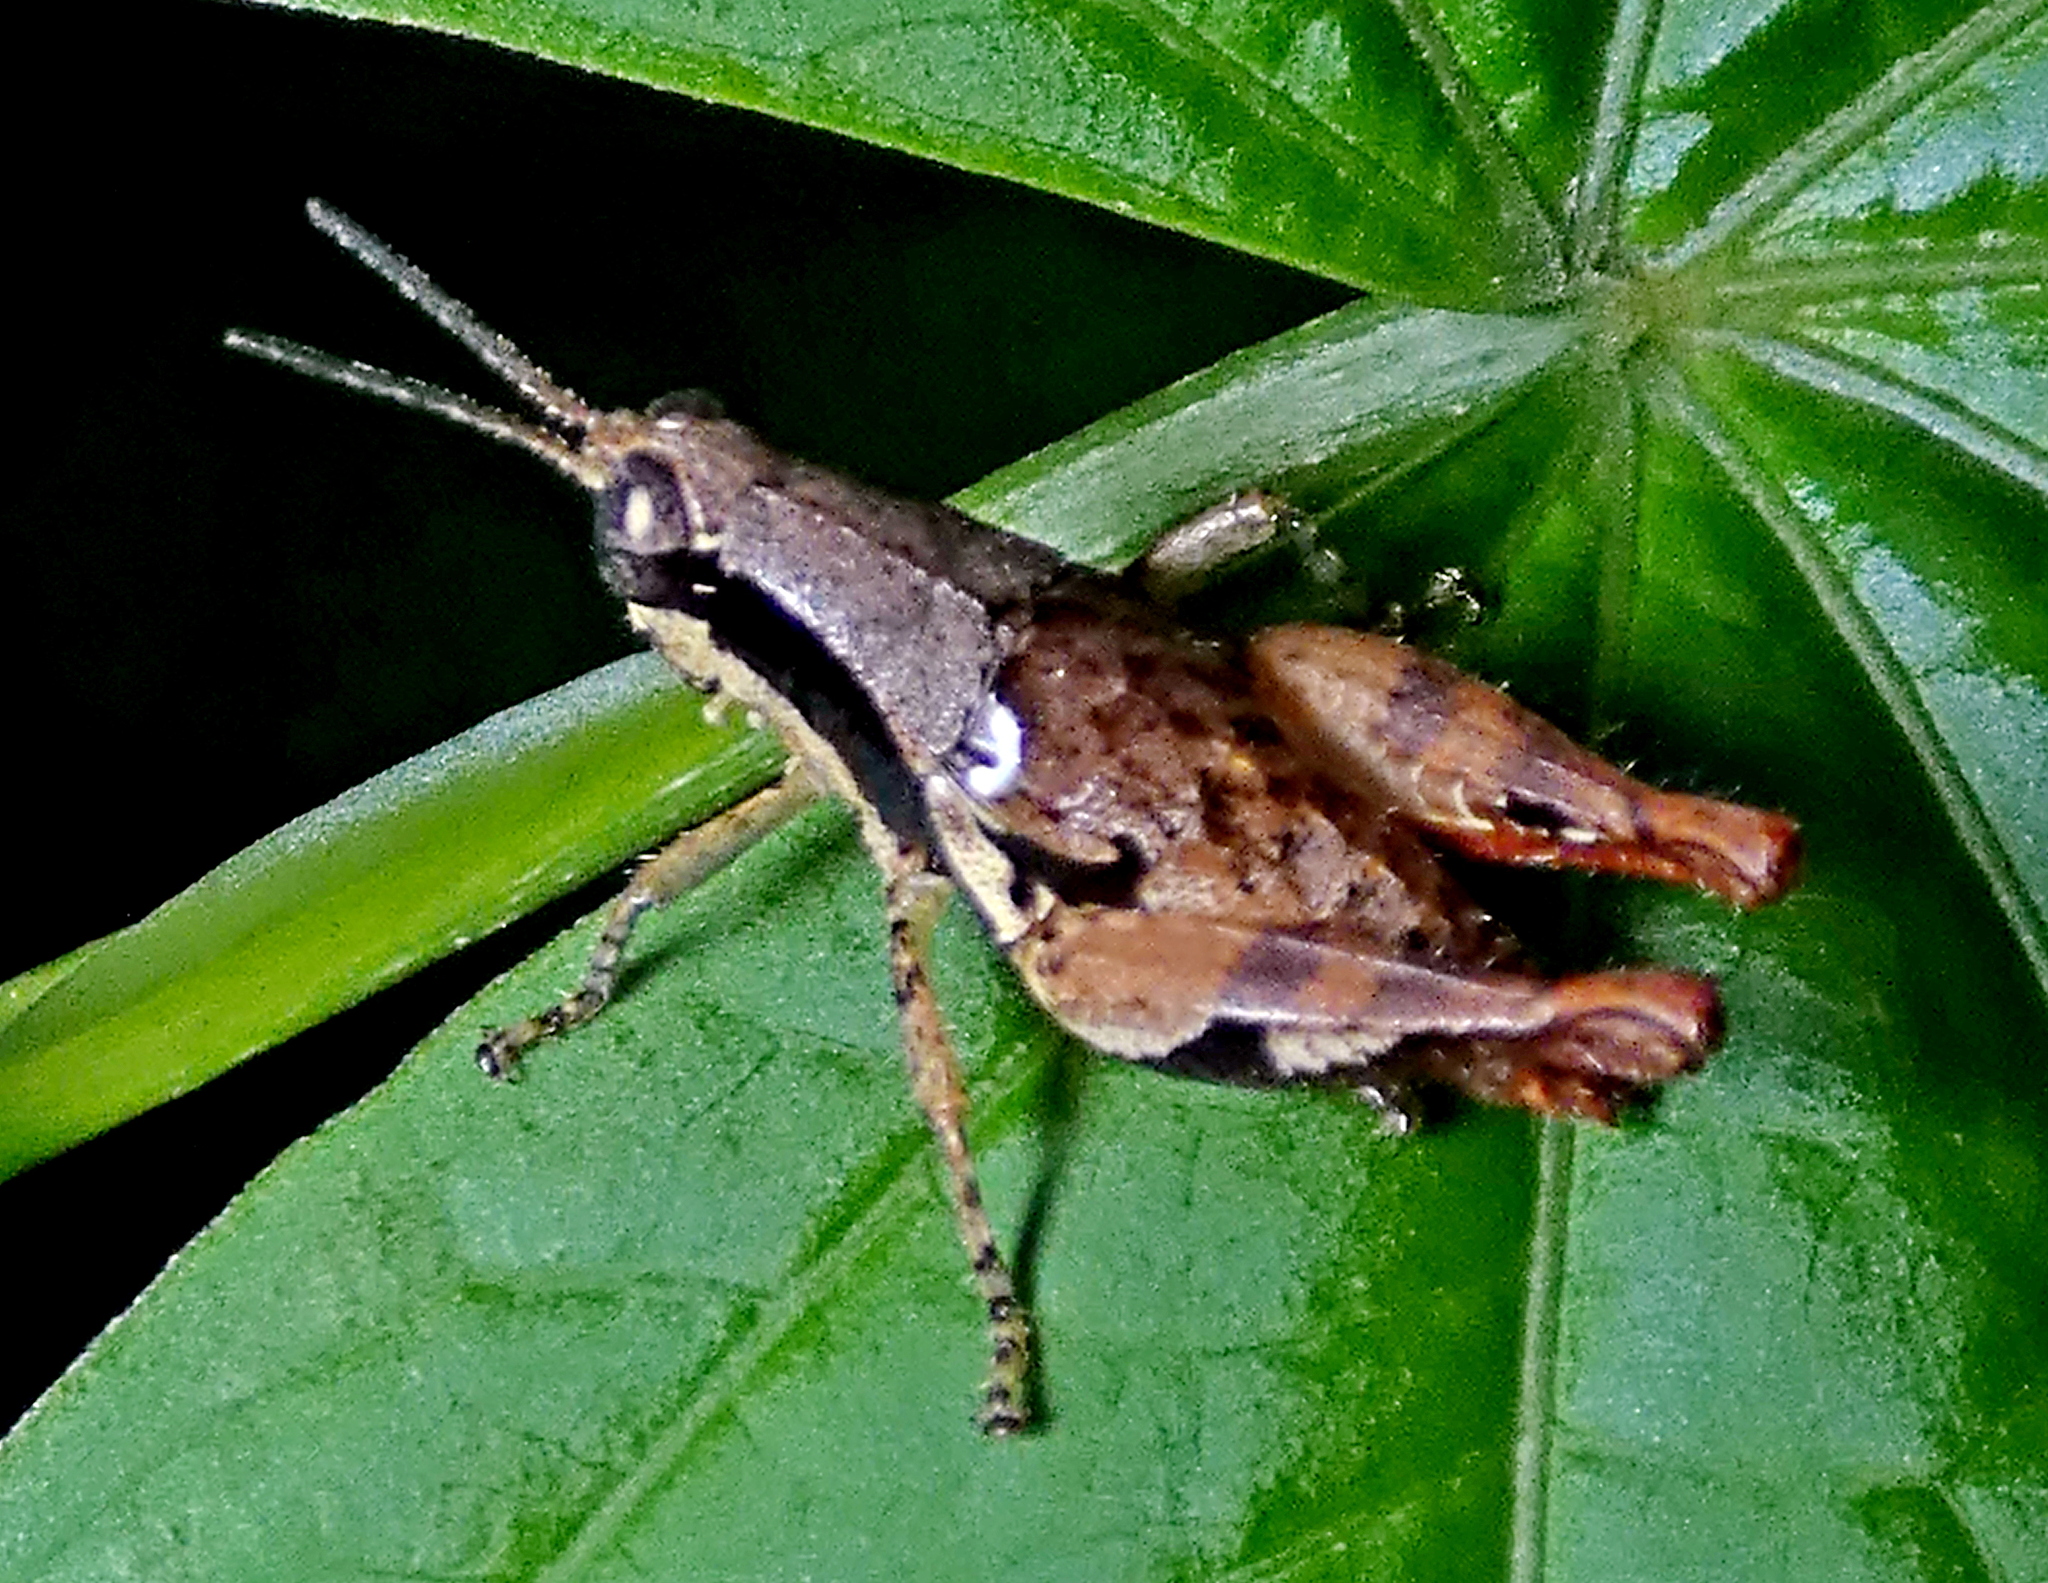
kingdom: Animalia
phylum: Arthropoda
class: Insecta
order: Orthoptera
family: Acrididae
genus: Eujivarus
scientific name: Eujivarus meridionalis
